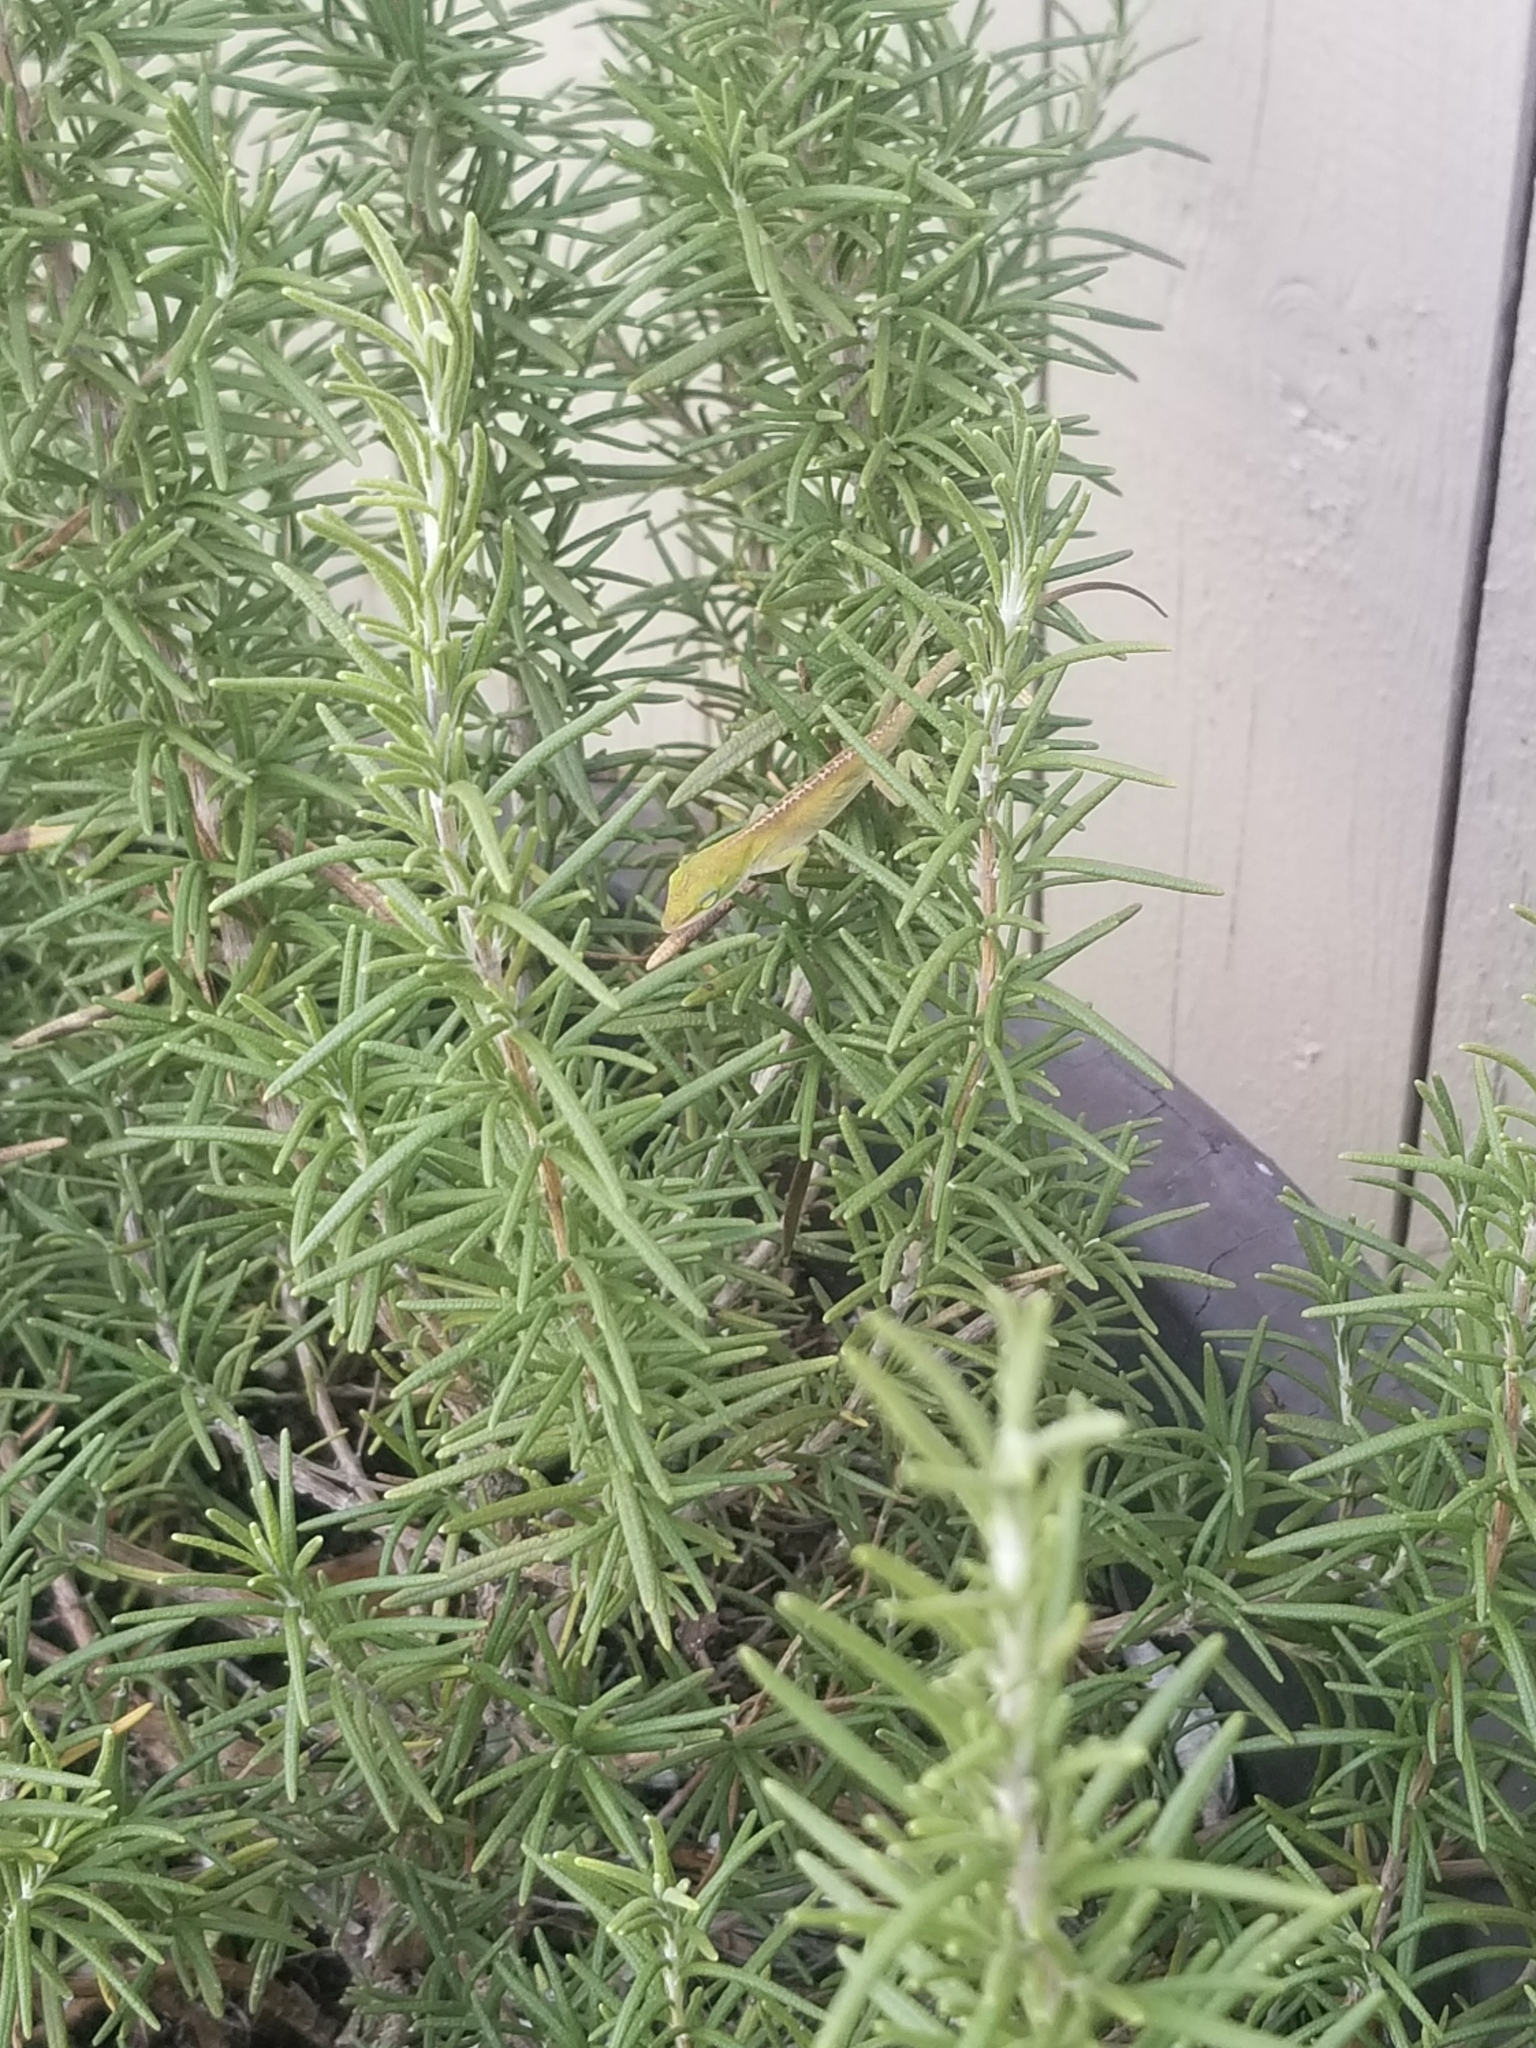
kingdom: Animalia
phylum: Chordata
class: Squamata
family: Dactyloidae
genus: Anolis
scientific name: Anolis carolinensis
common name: Green anole
